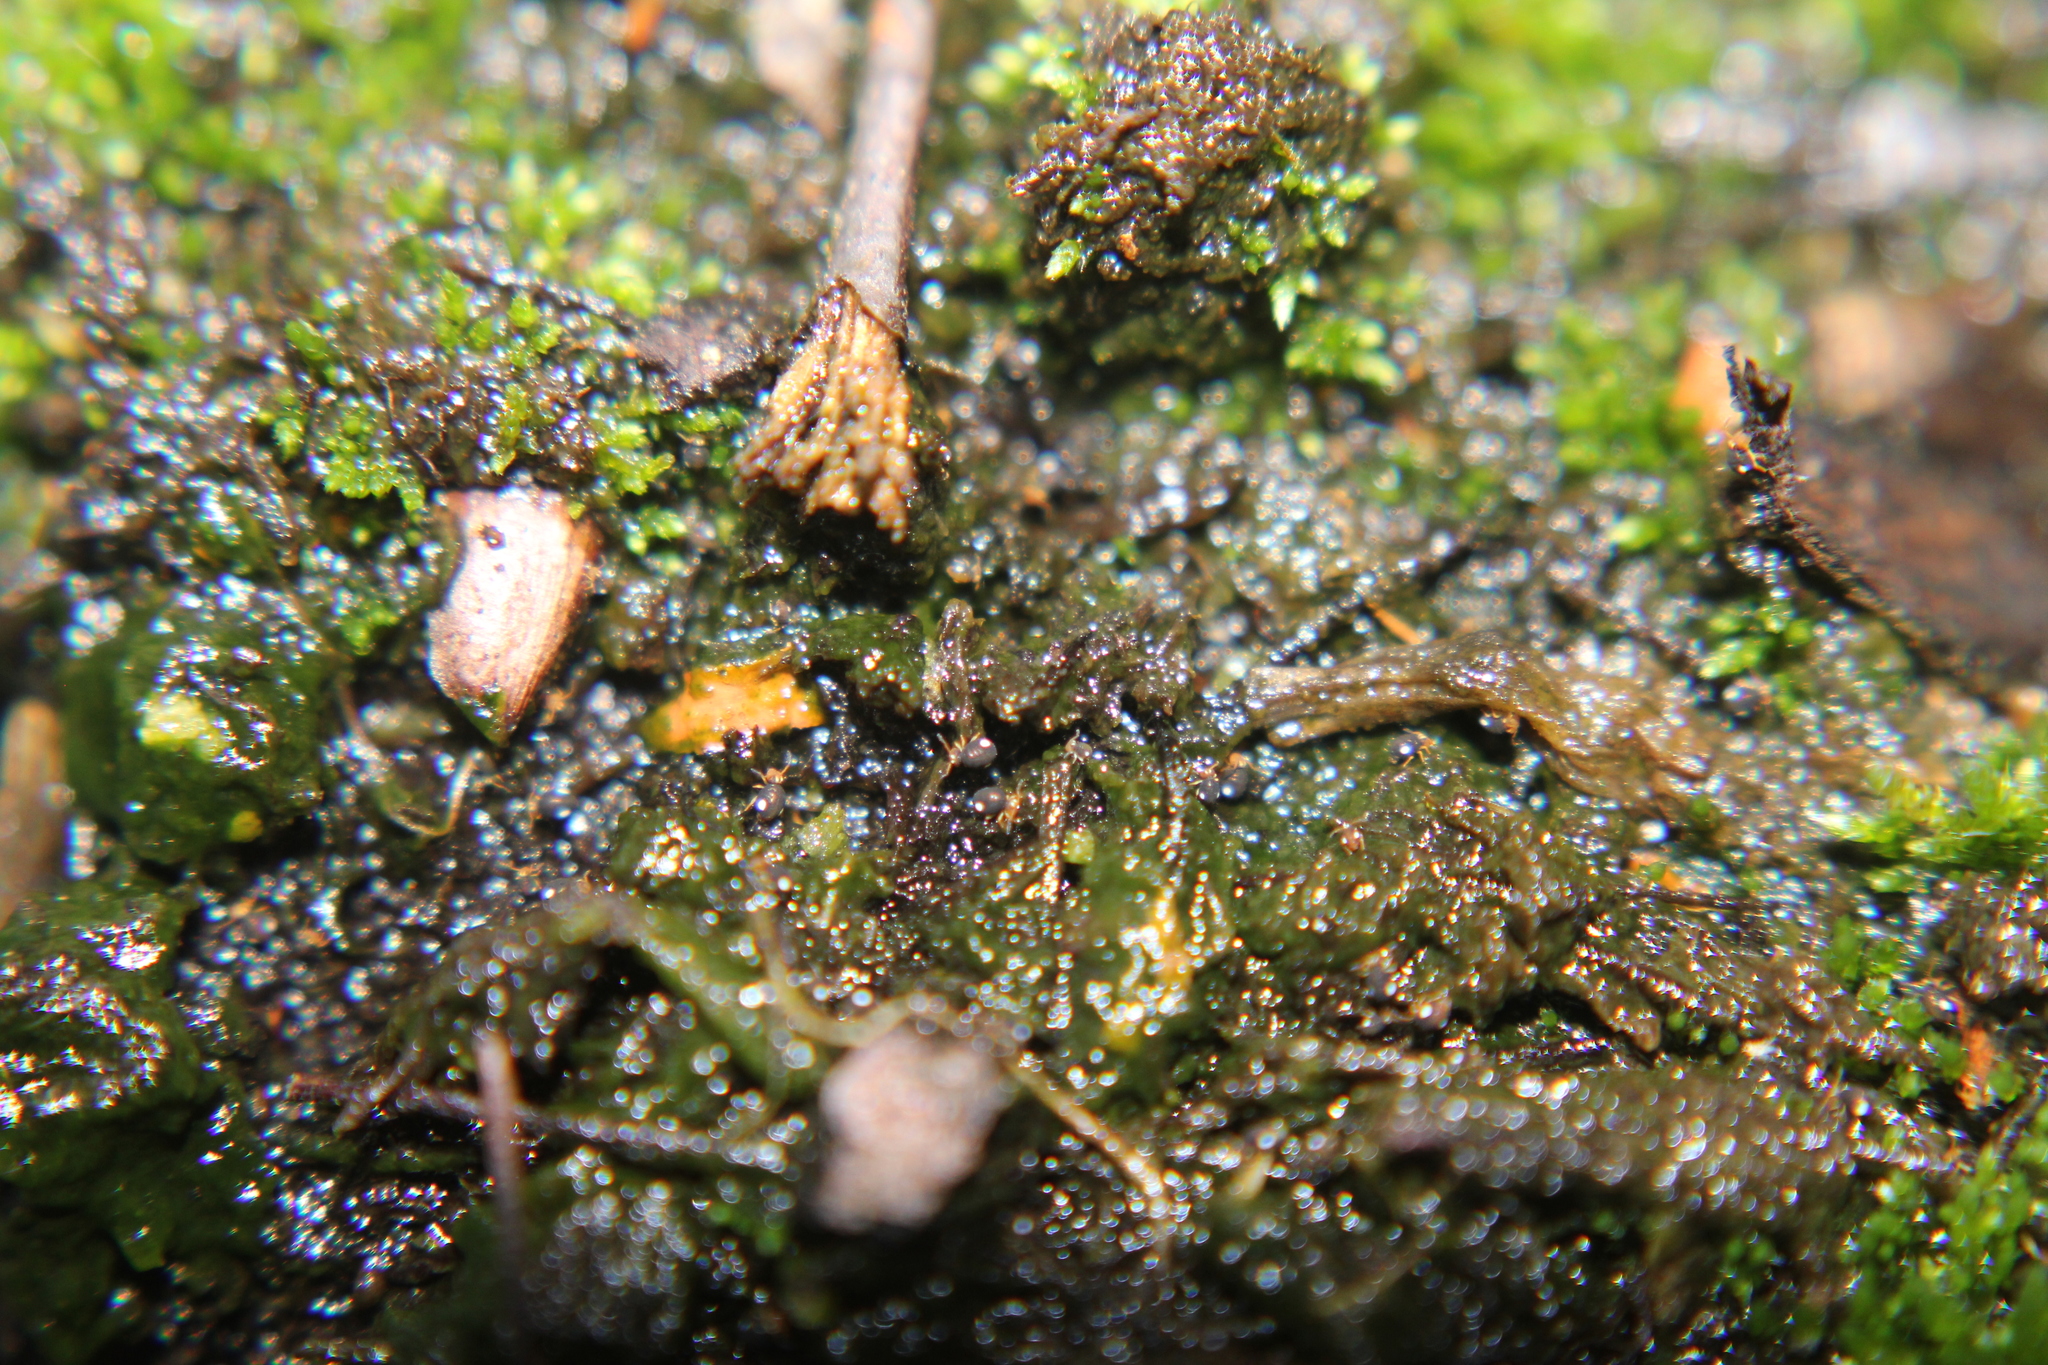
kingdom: Animalia
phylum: Arthropoda
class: Collembola
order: Symphypleona
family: Katiannidae
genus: Sminthurinus
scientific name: Sminthurinus quadrimaculatus
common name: Globular springtail
